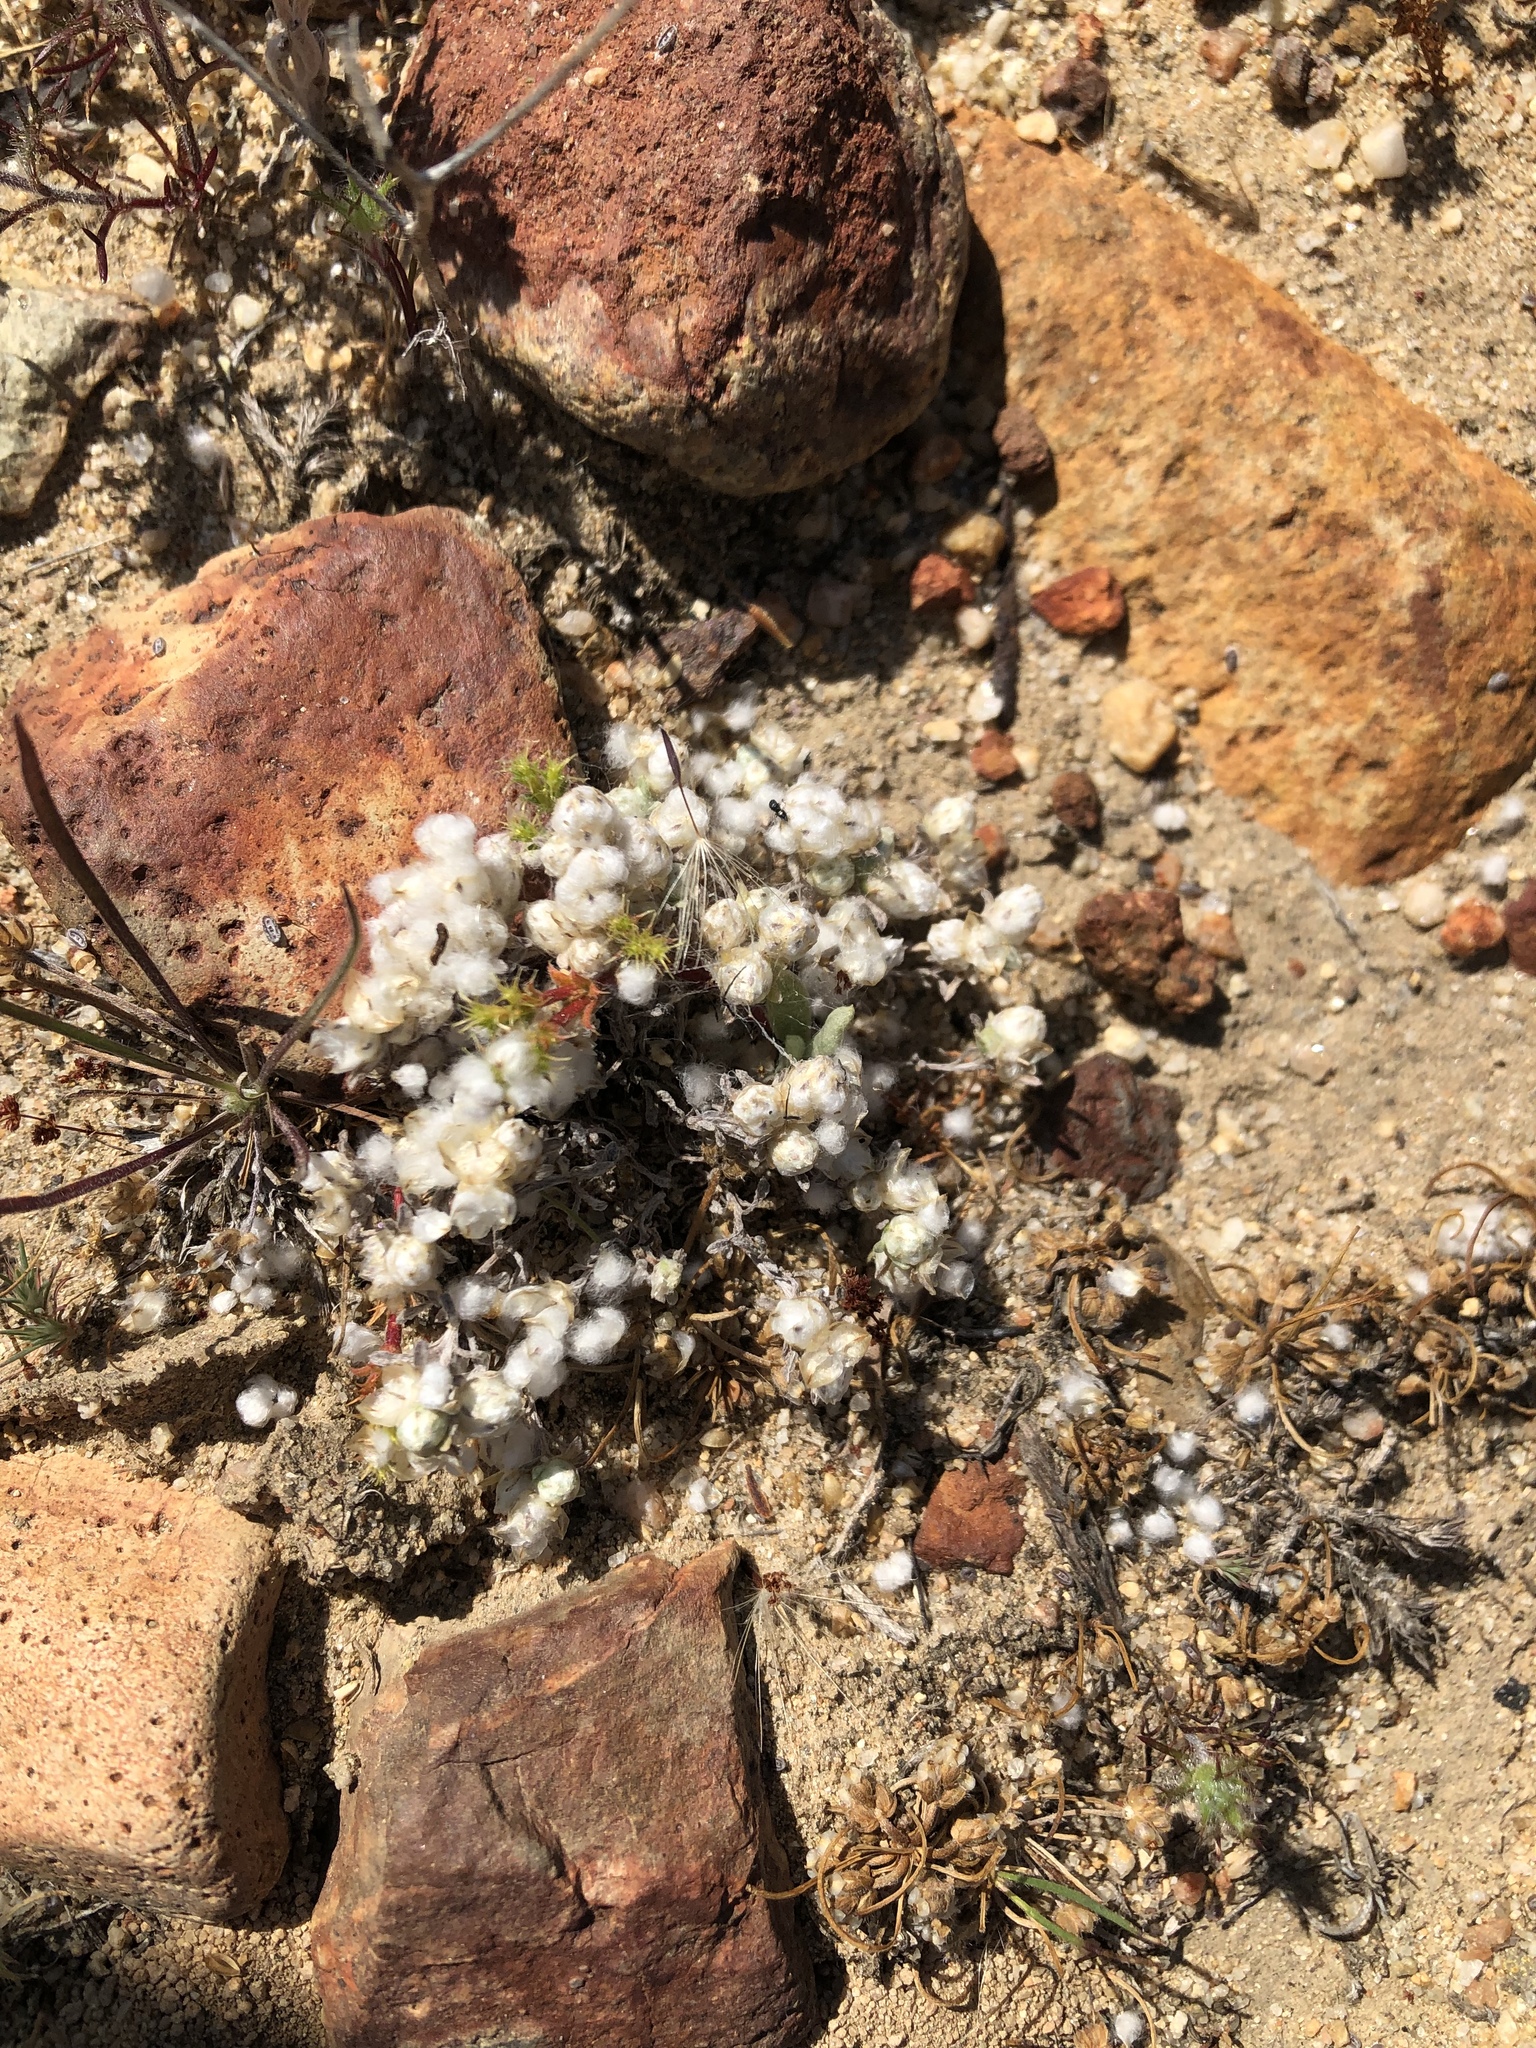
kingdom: Plantae
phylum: Tracheophyta
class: Magnoliopsida
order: Asterales
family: Asteraceae
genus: Stylocline
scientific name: Stylocline gnaphaloides
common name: Everlasting nest-straw
